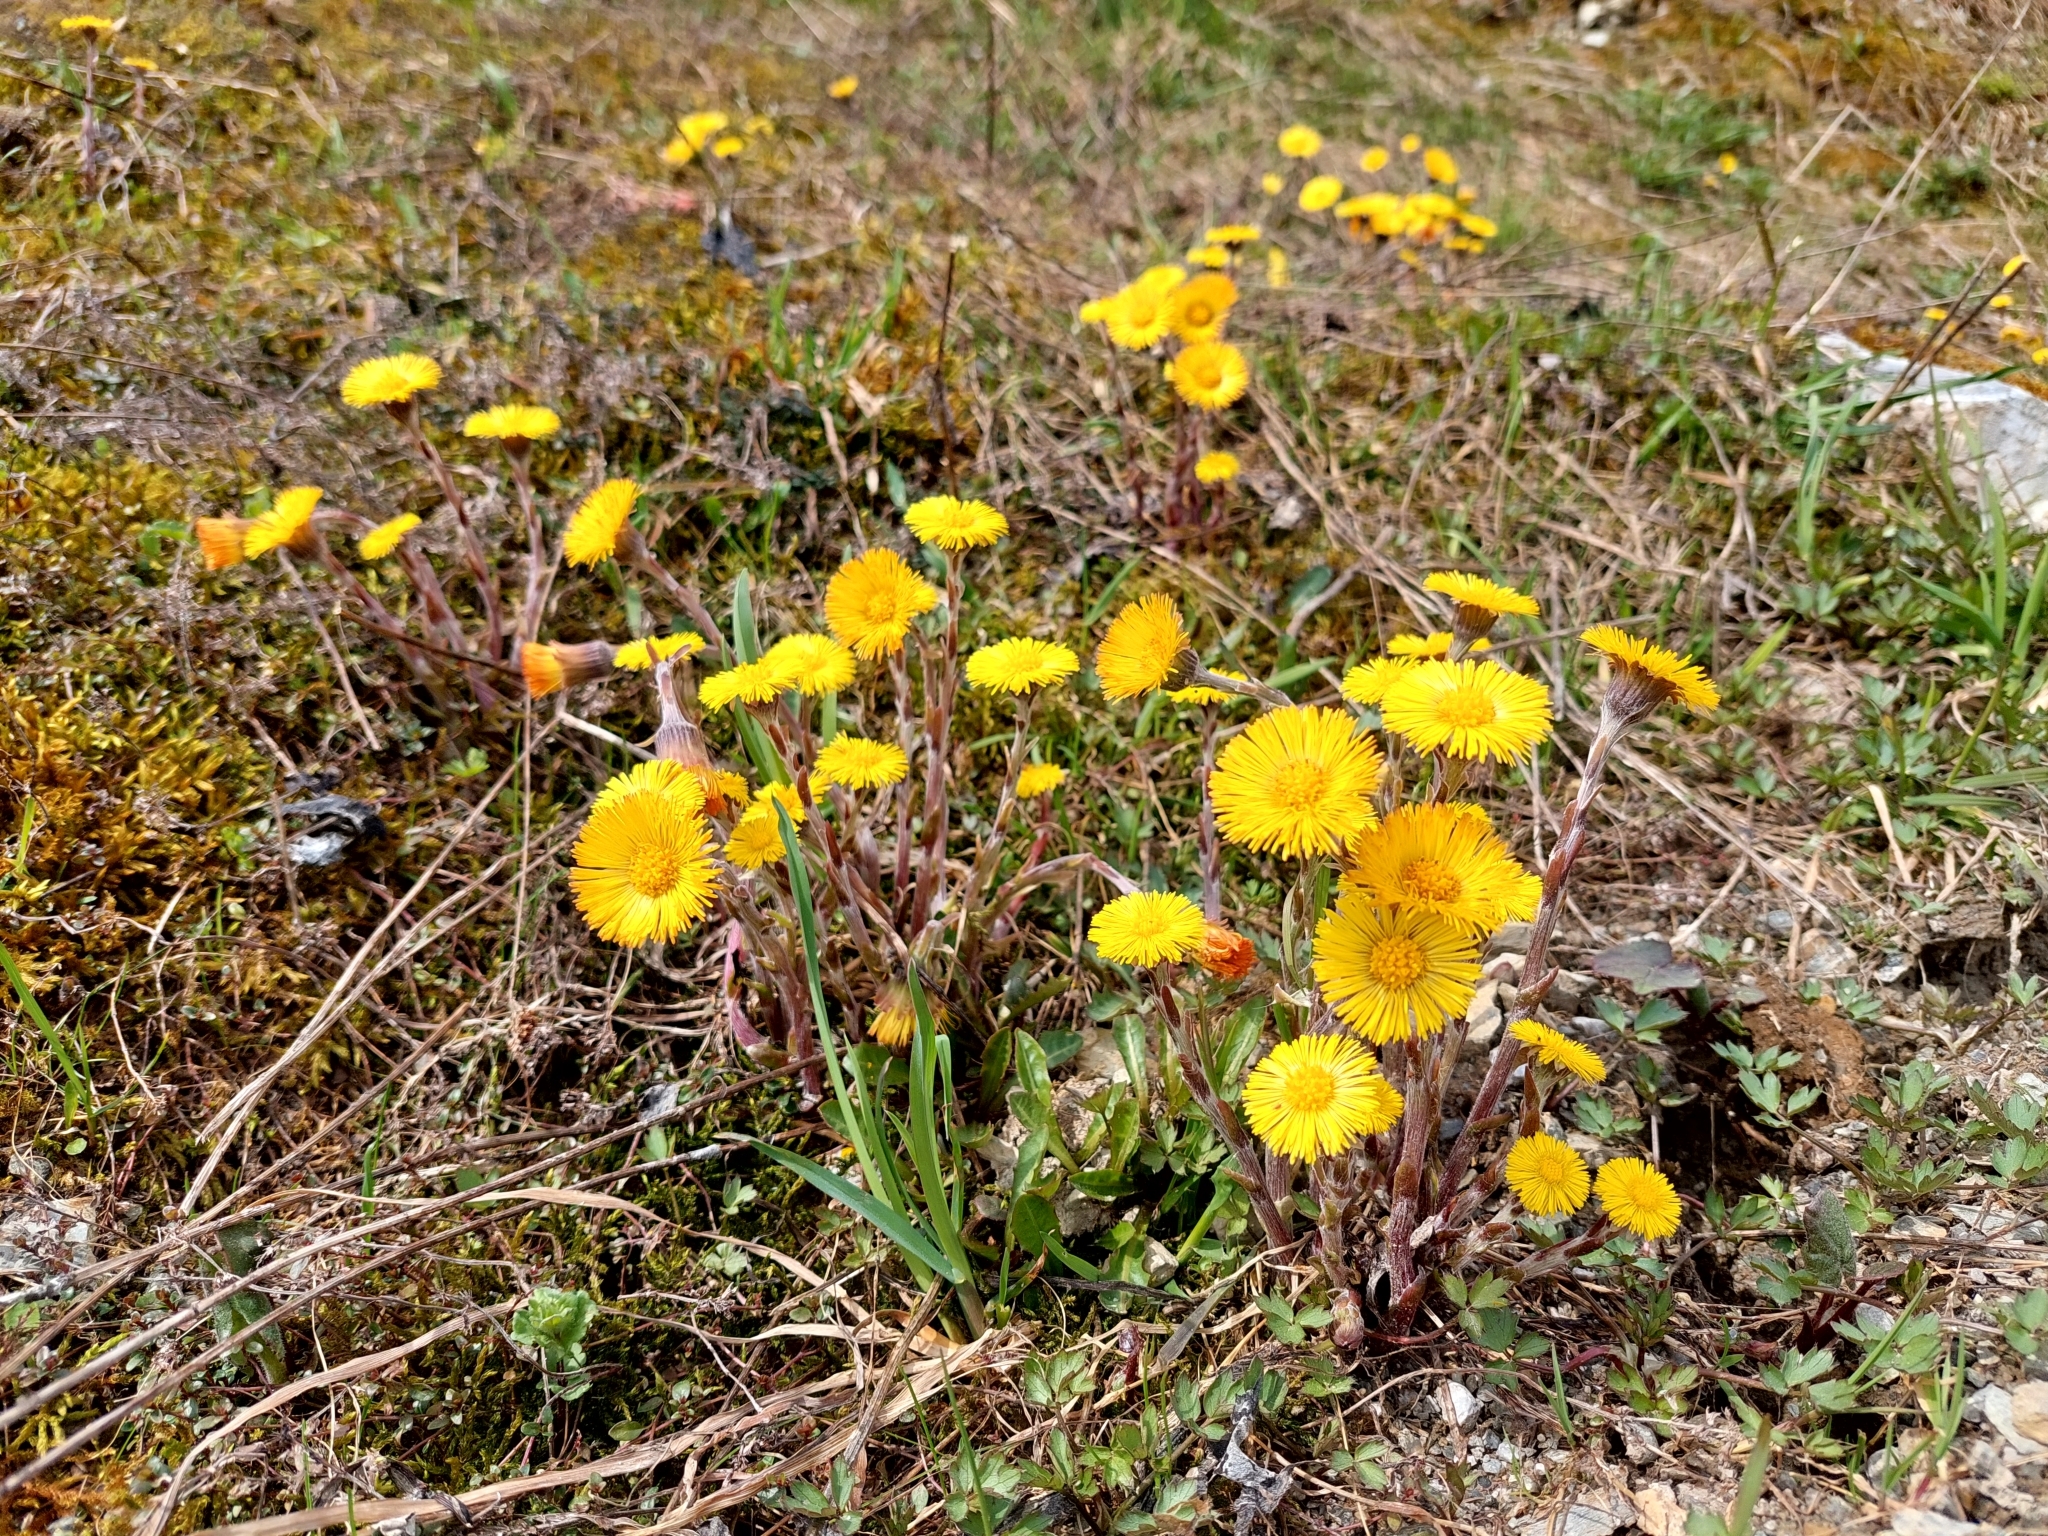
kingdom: Plantae
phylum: Tracheophyta
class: Magnoliopsida
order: Asterales
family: Asteraceae
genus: Tussilago
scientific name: Tussilago farfara
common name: Coltsfoot
